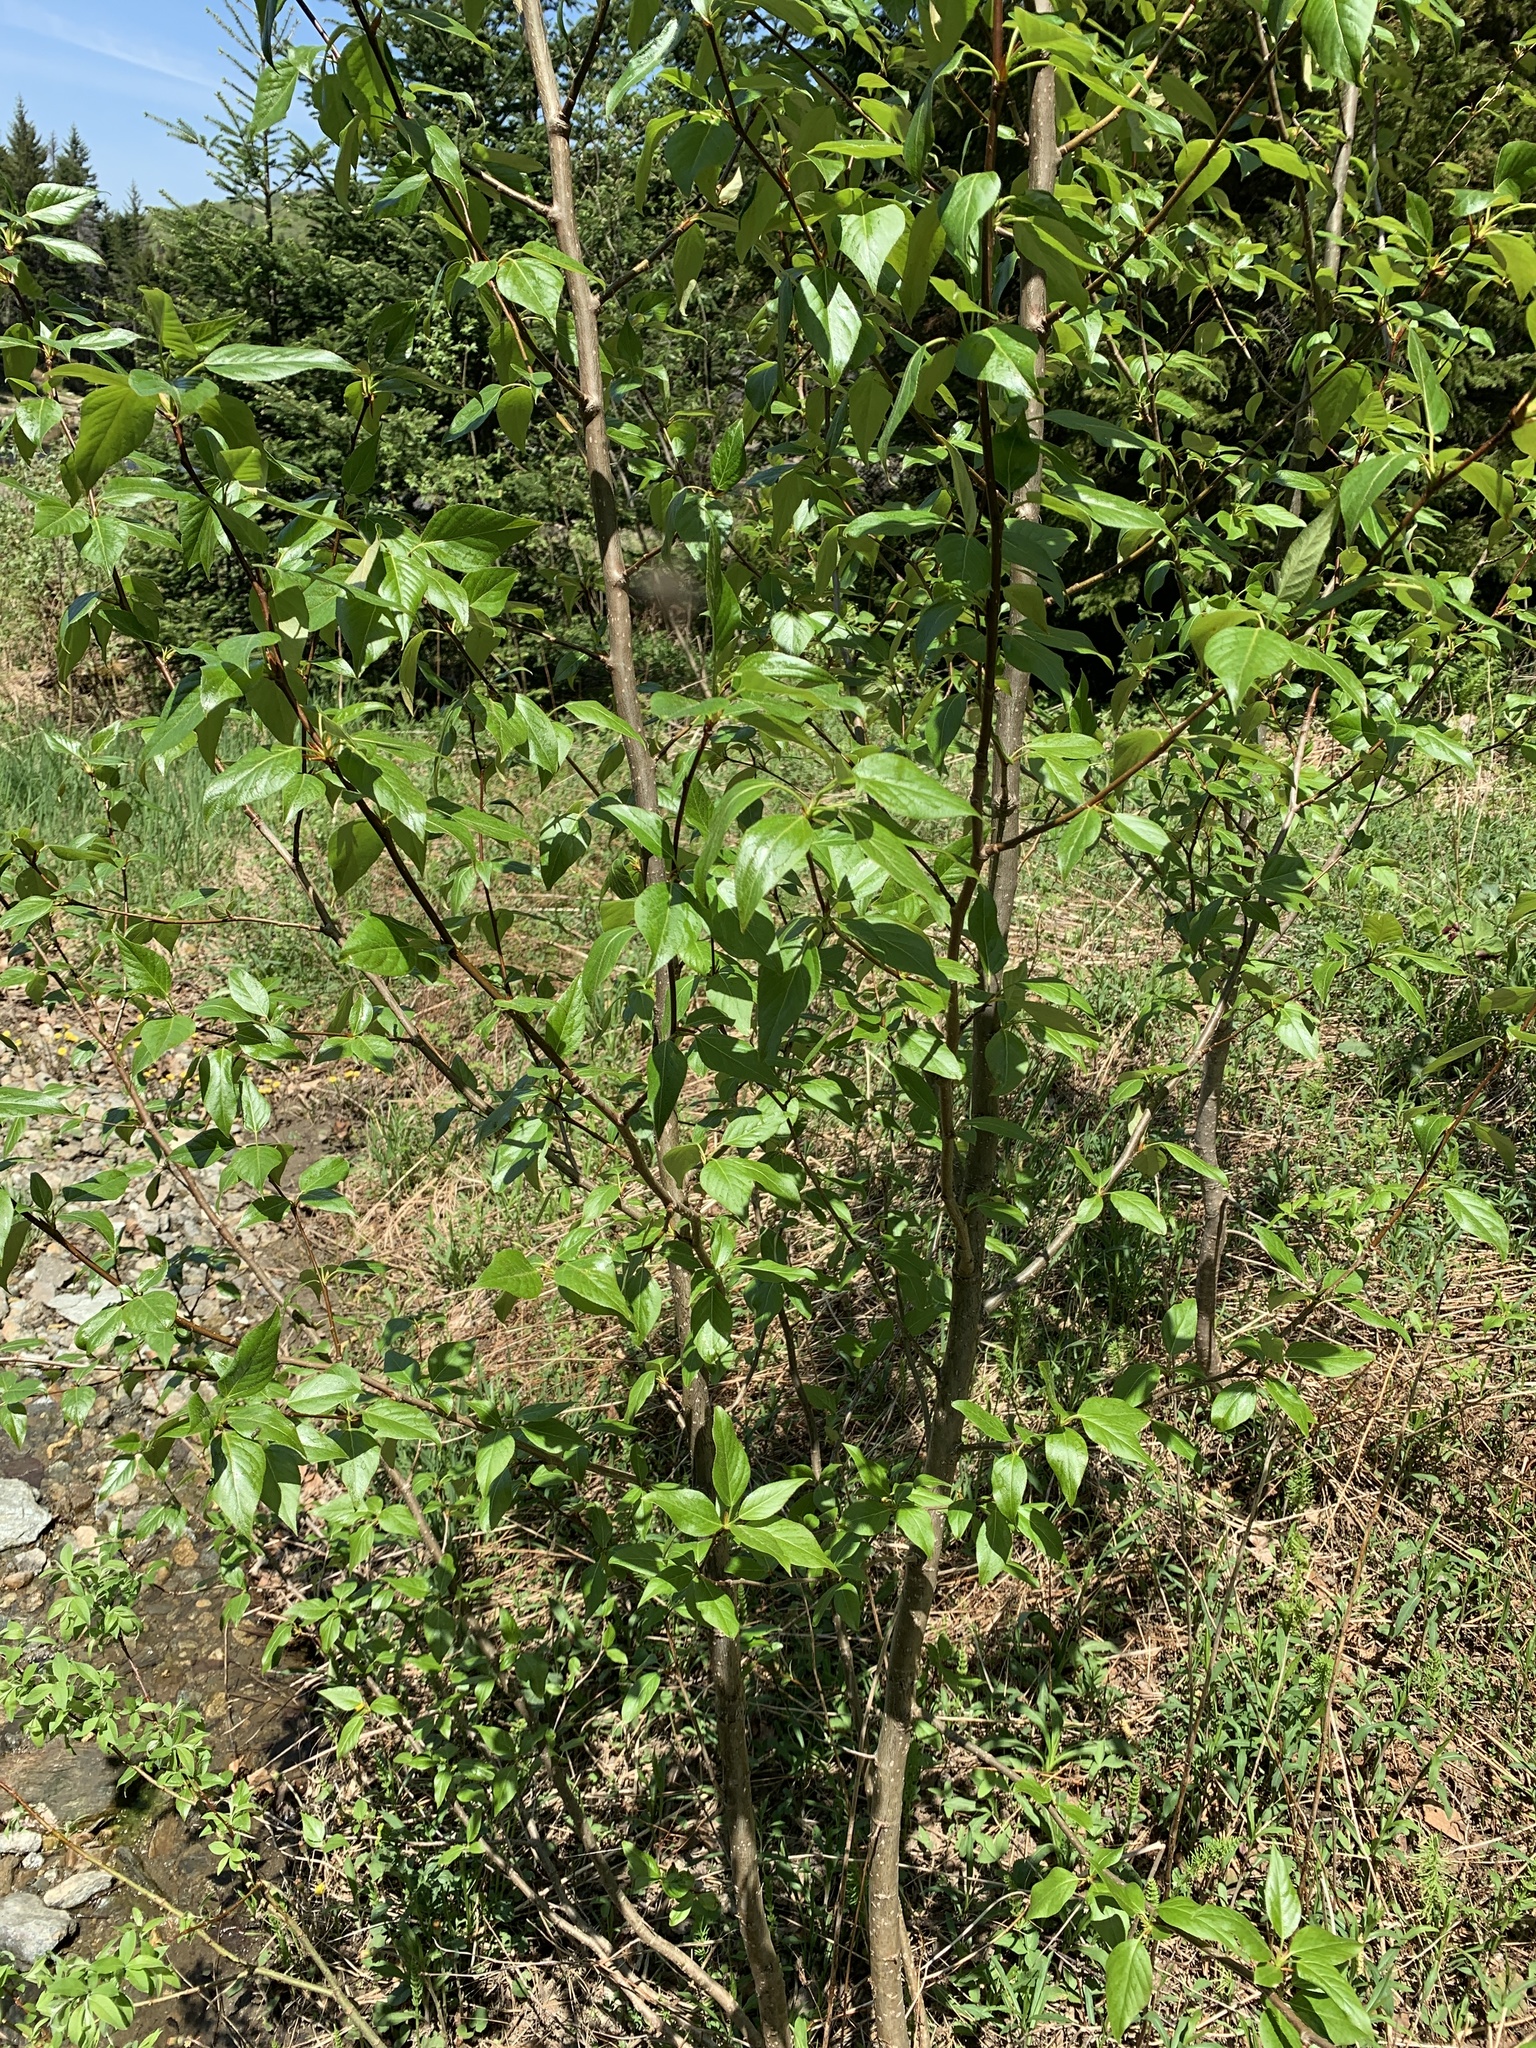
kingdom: Plantae
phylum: Tracheophyta
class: Magnoliopsida
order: Malpighiales
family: Salicaceae
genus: Populus
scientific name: Populus balsamifera
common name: Balsam poplar
